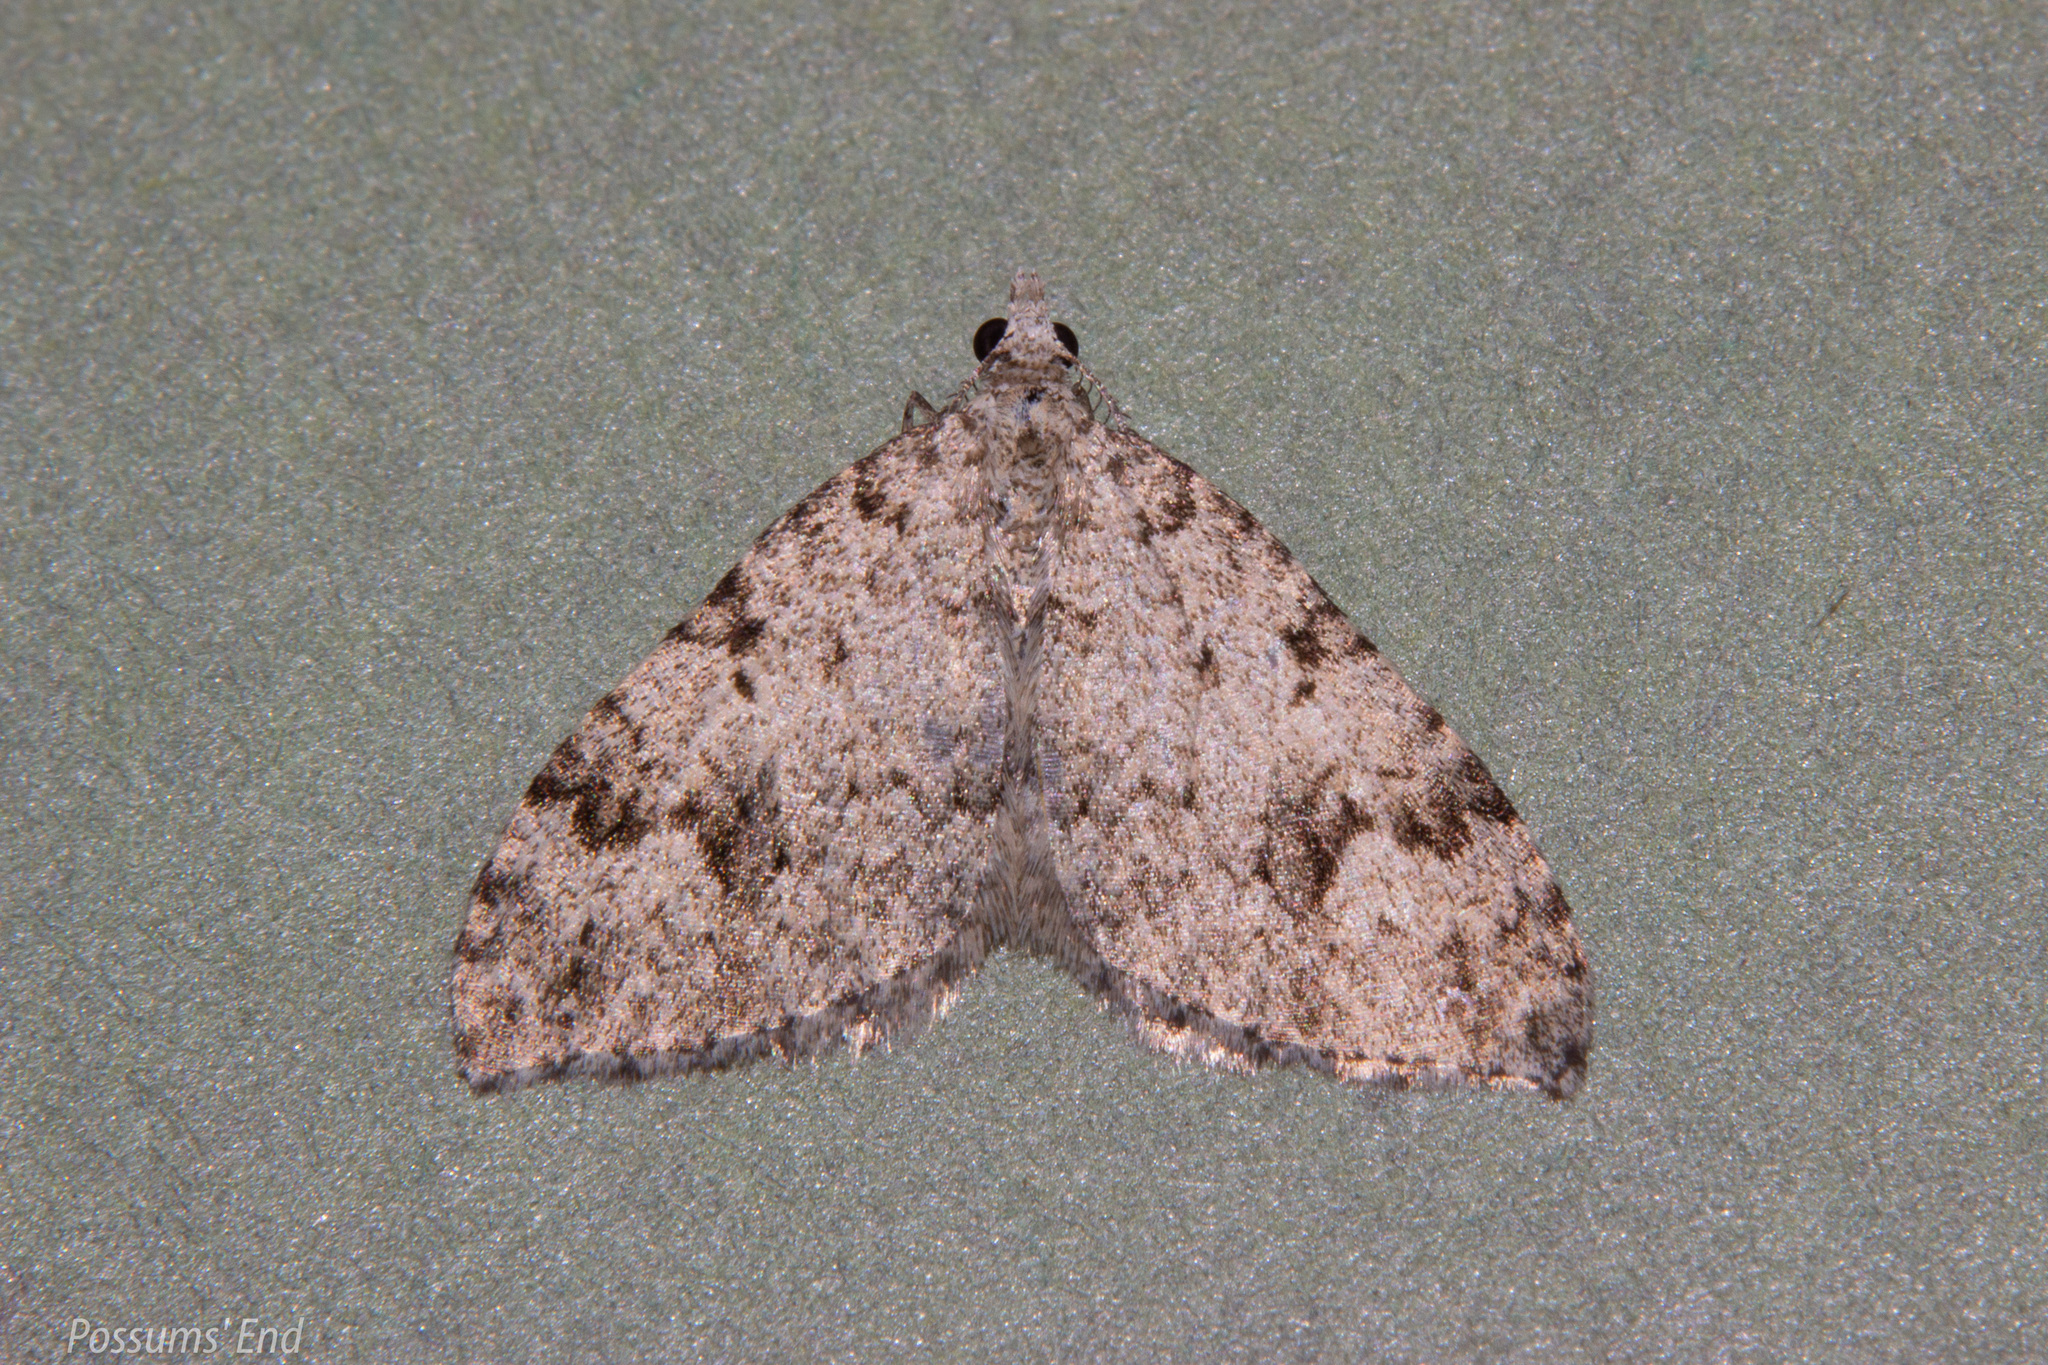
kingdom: Animalia
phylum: Arthropoda
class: Insecta
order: Lepidoptera
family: Geometridae
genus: Helastia
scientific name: Helastia cinerearia
